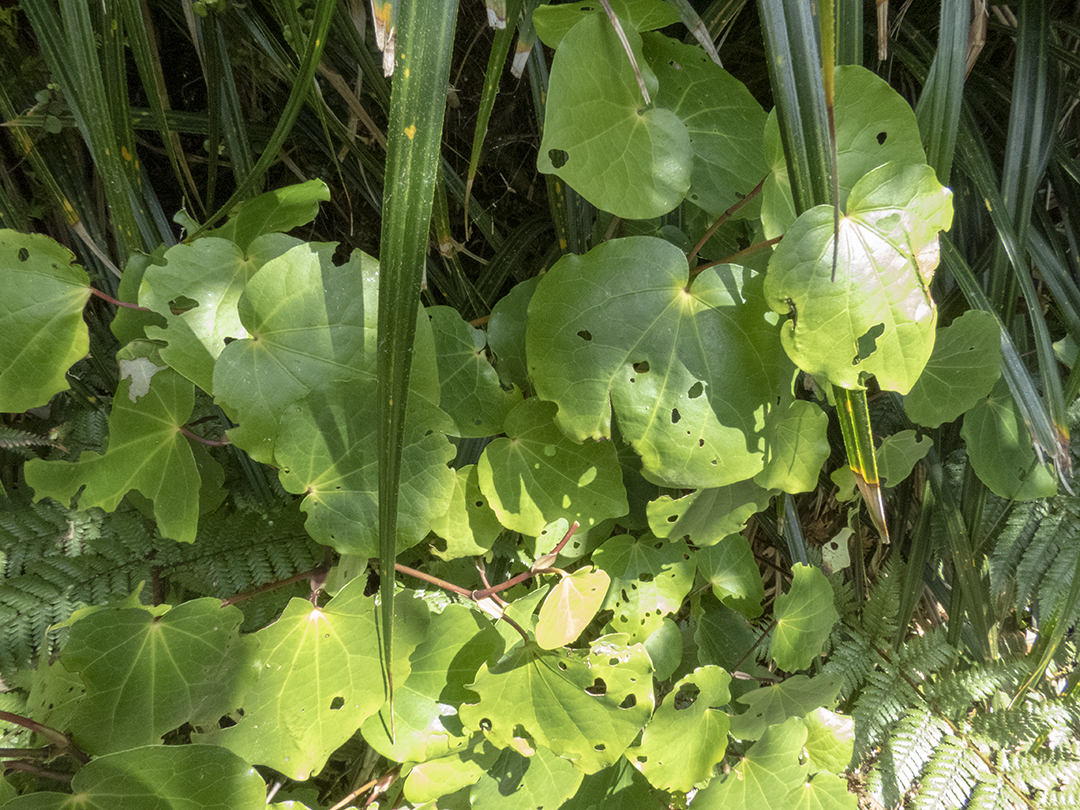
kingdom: Plantae
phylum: Tracheophyta
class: Magnoliopsida
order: Piperales
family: Piperaceae
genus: Macropiper
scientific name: Macropiper excelsum
